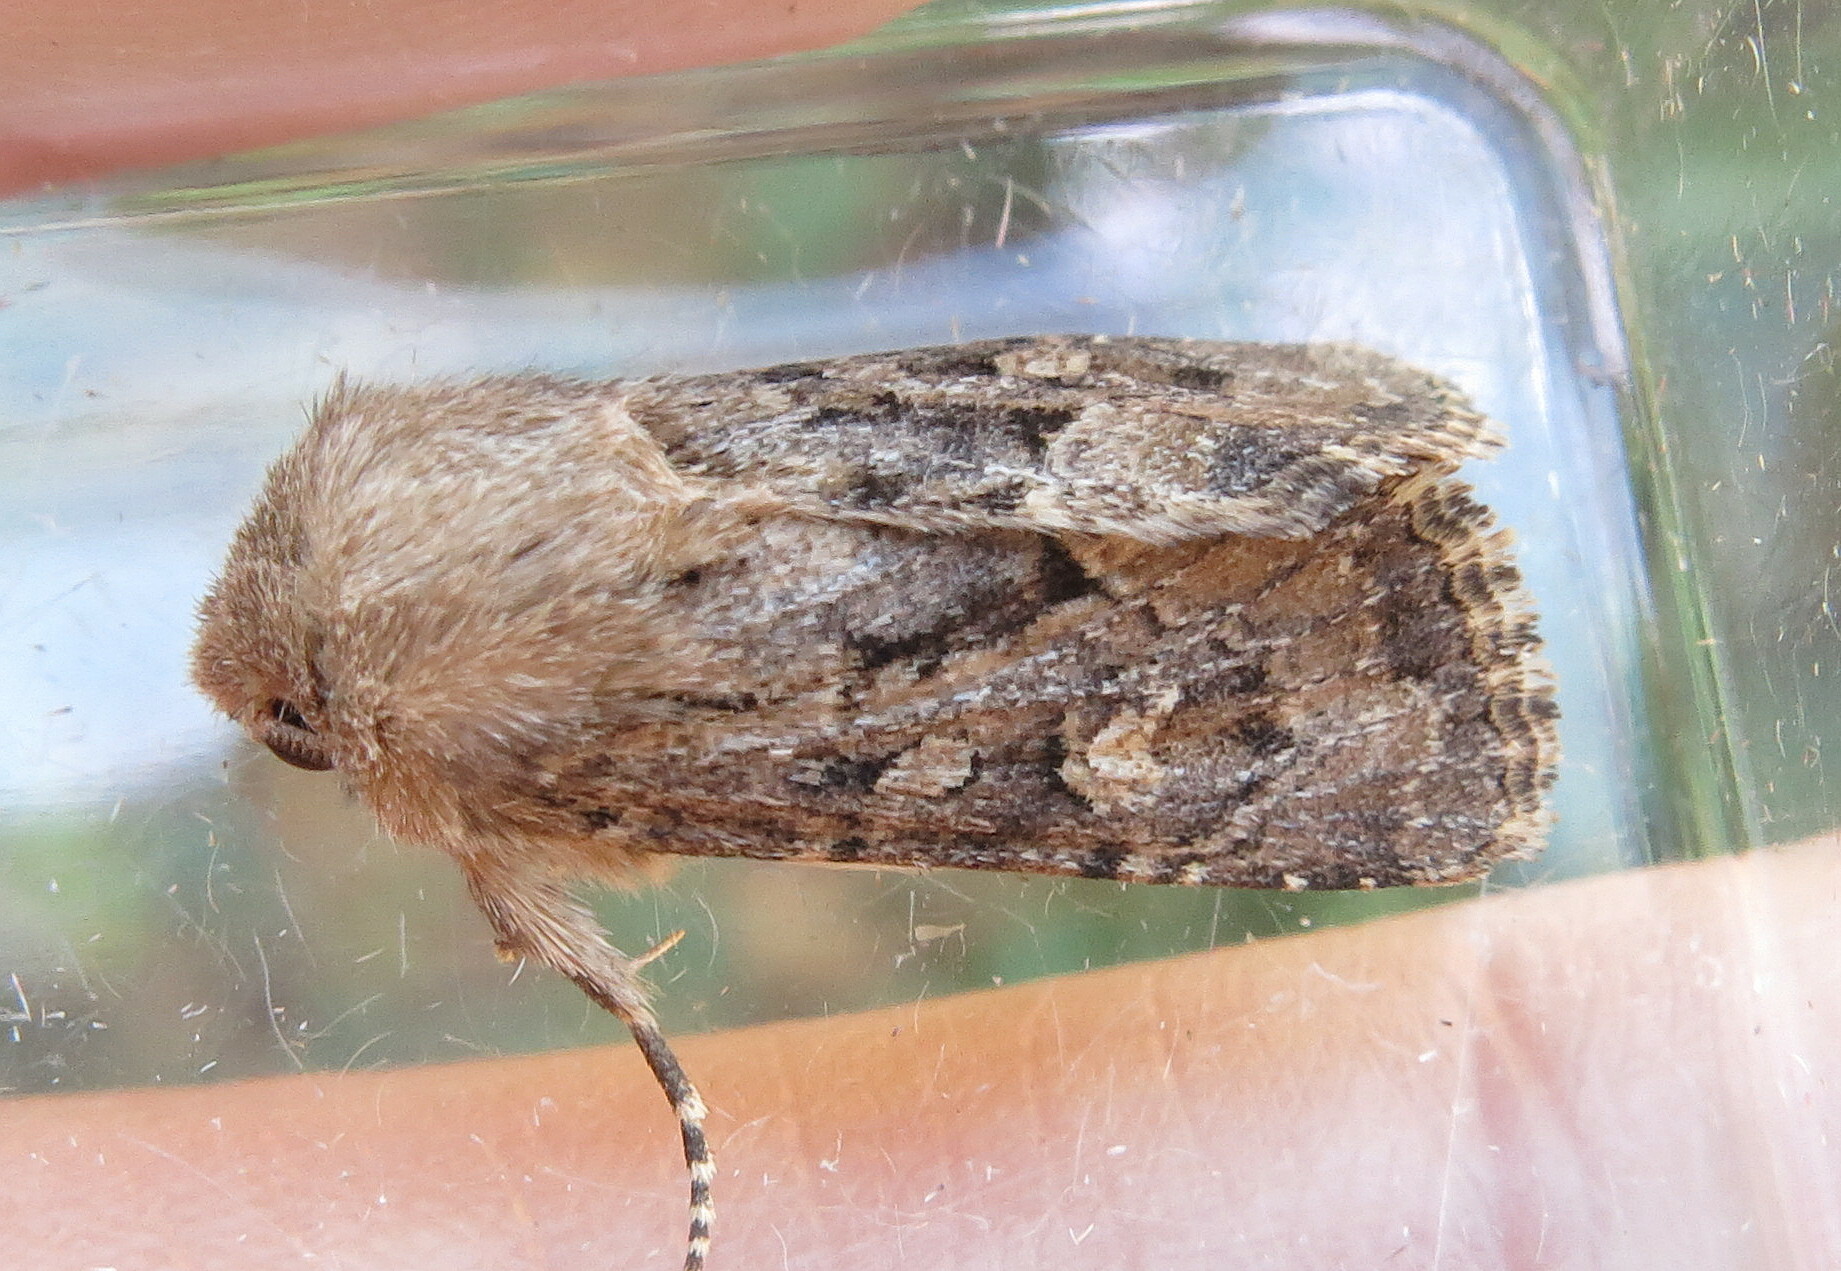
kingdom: Animalia
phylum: Arthropoda
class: Insecta
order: Lepidoptera
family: Noctuidae
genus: Luperina
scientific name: Luperina testacea
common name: Flounced rustic
